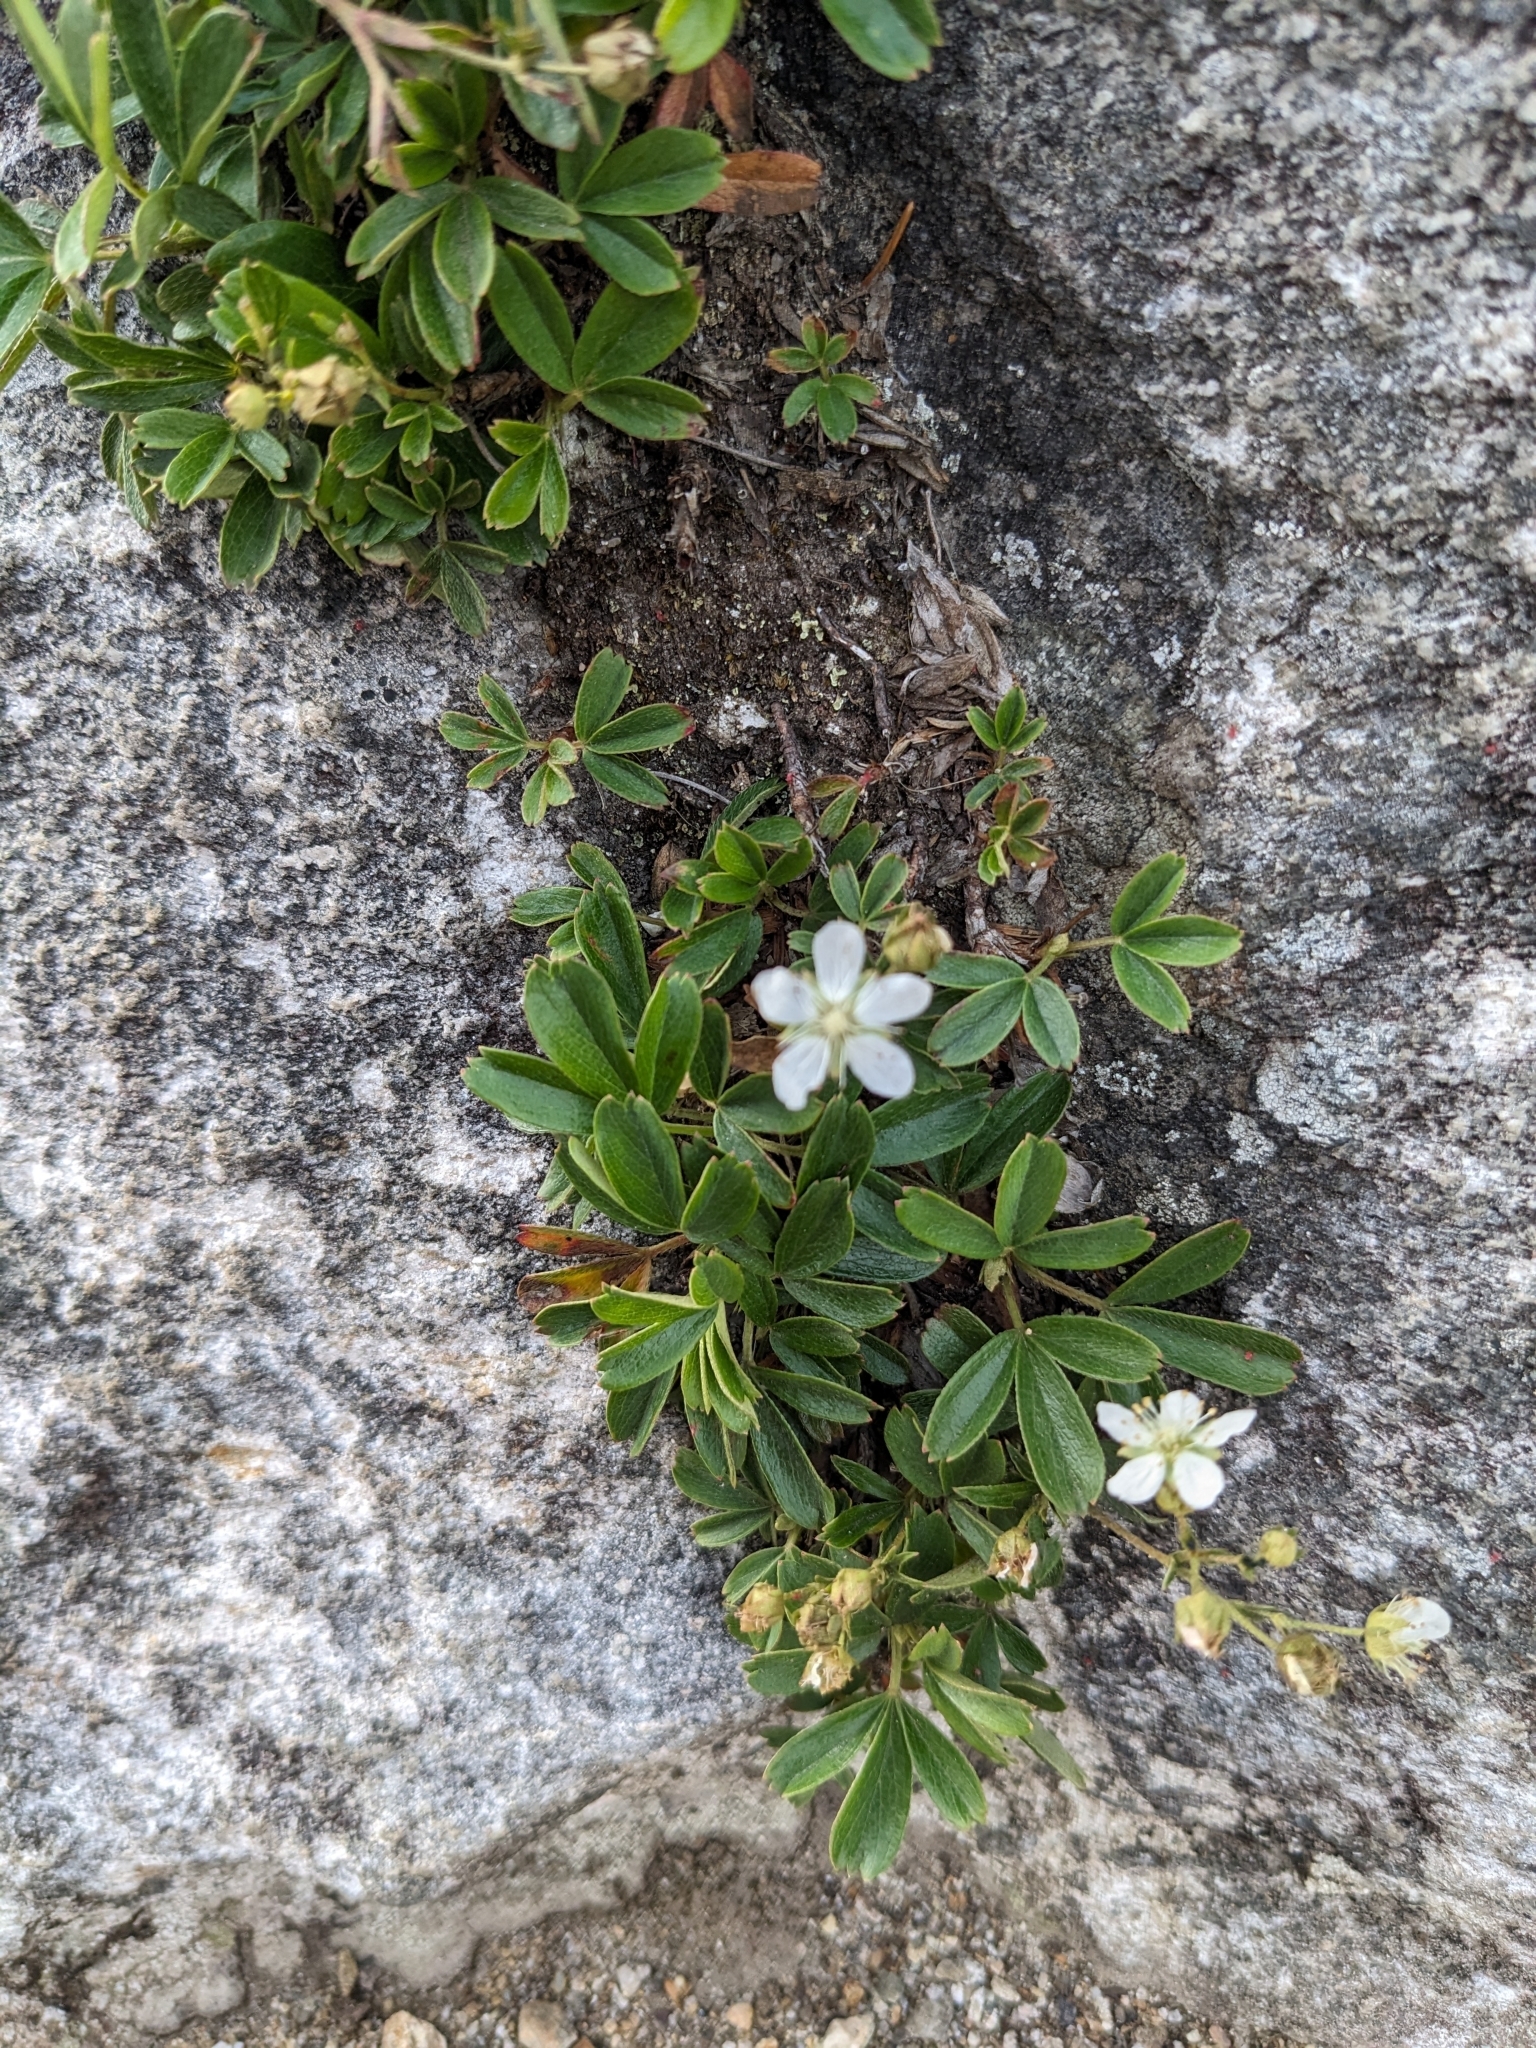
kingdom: Plantae
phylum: Tracheophyta
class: Magnoliopsida
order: Rosales
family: Rosaceae
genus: Sibbaldia
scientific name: Sibbaldia tridentata
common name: Three-toothed cinquefoil
